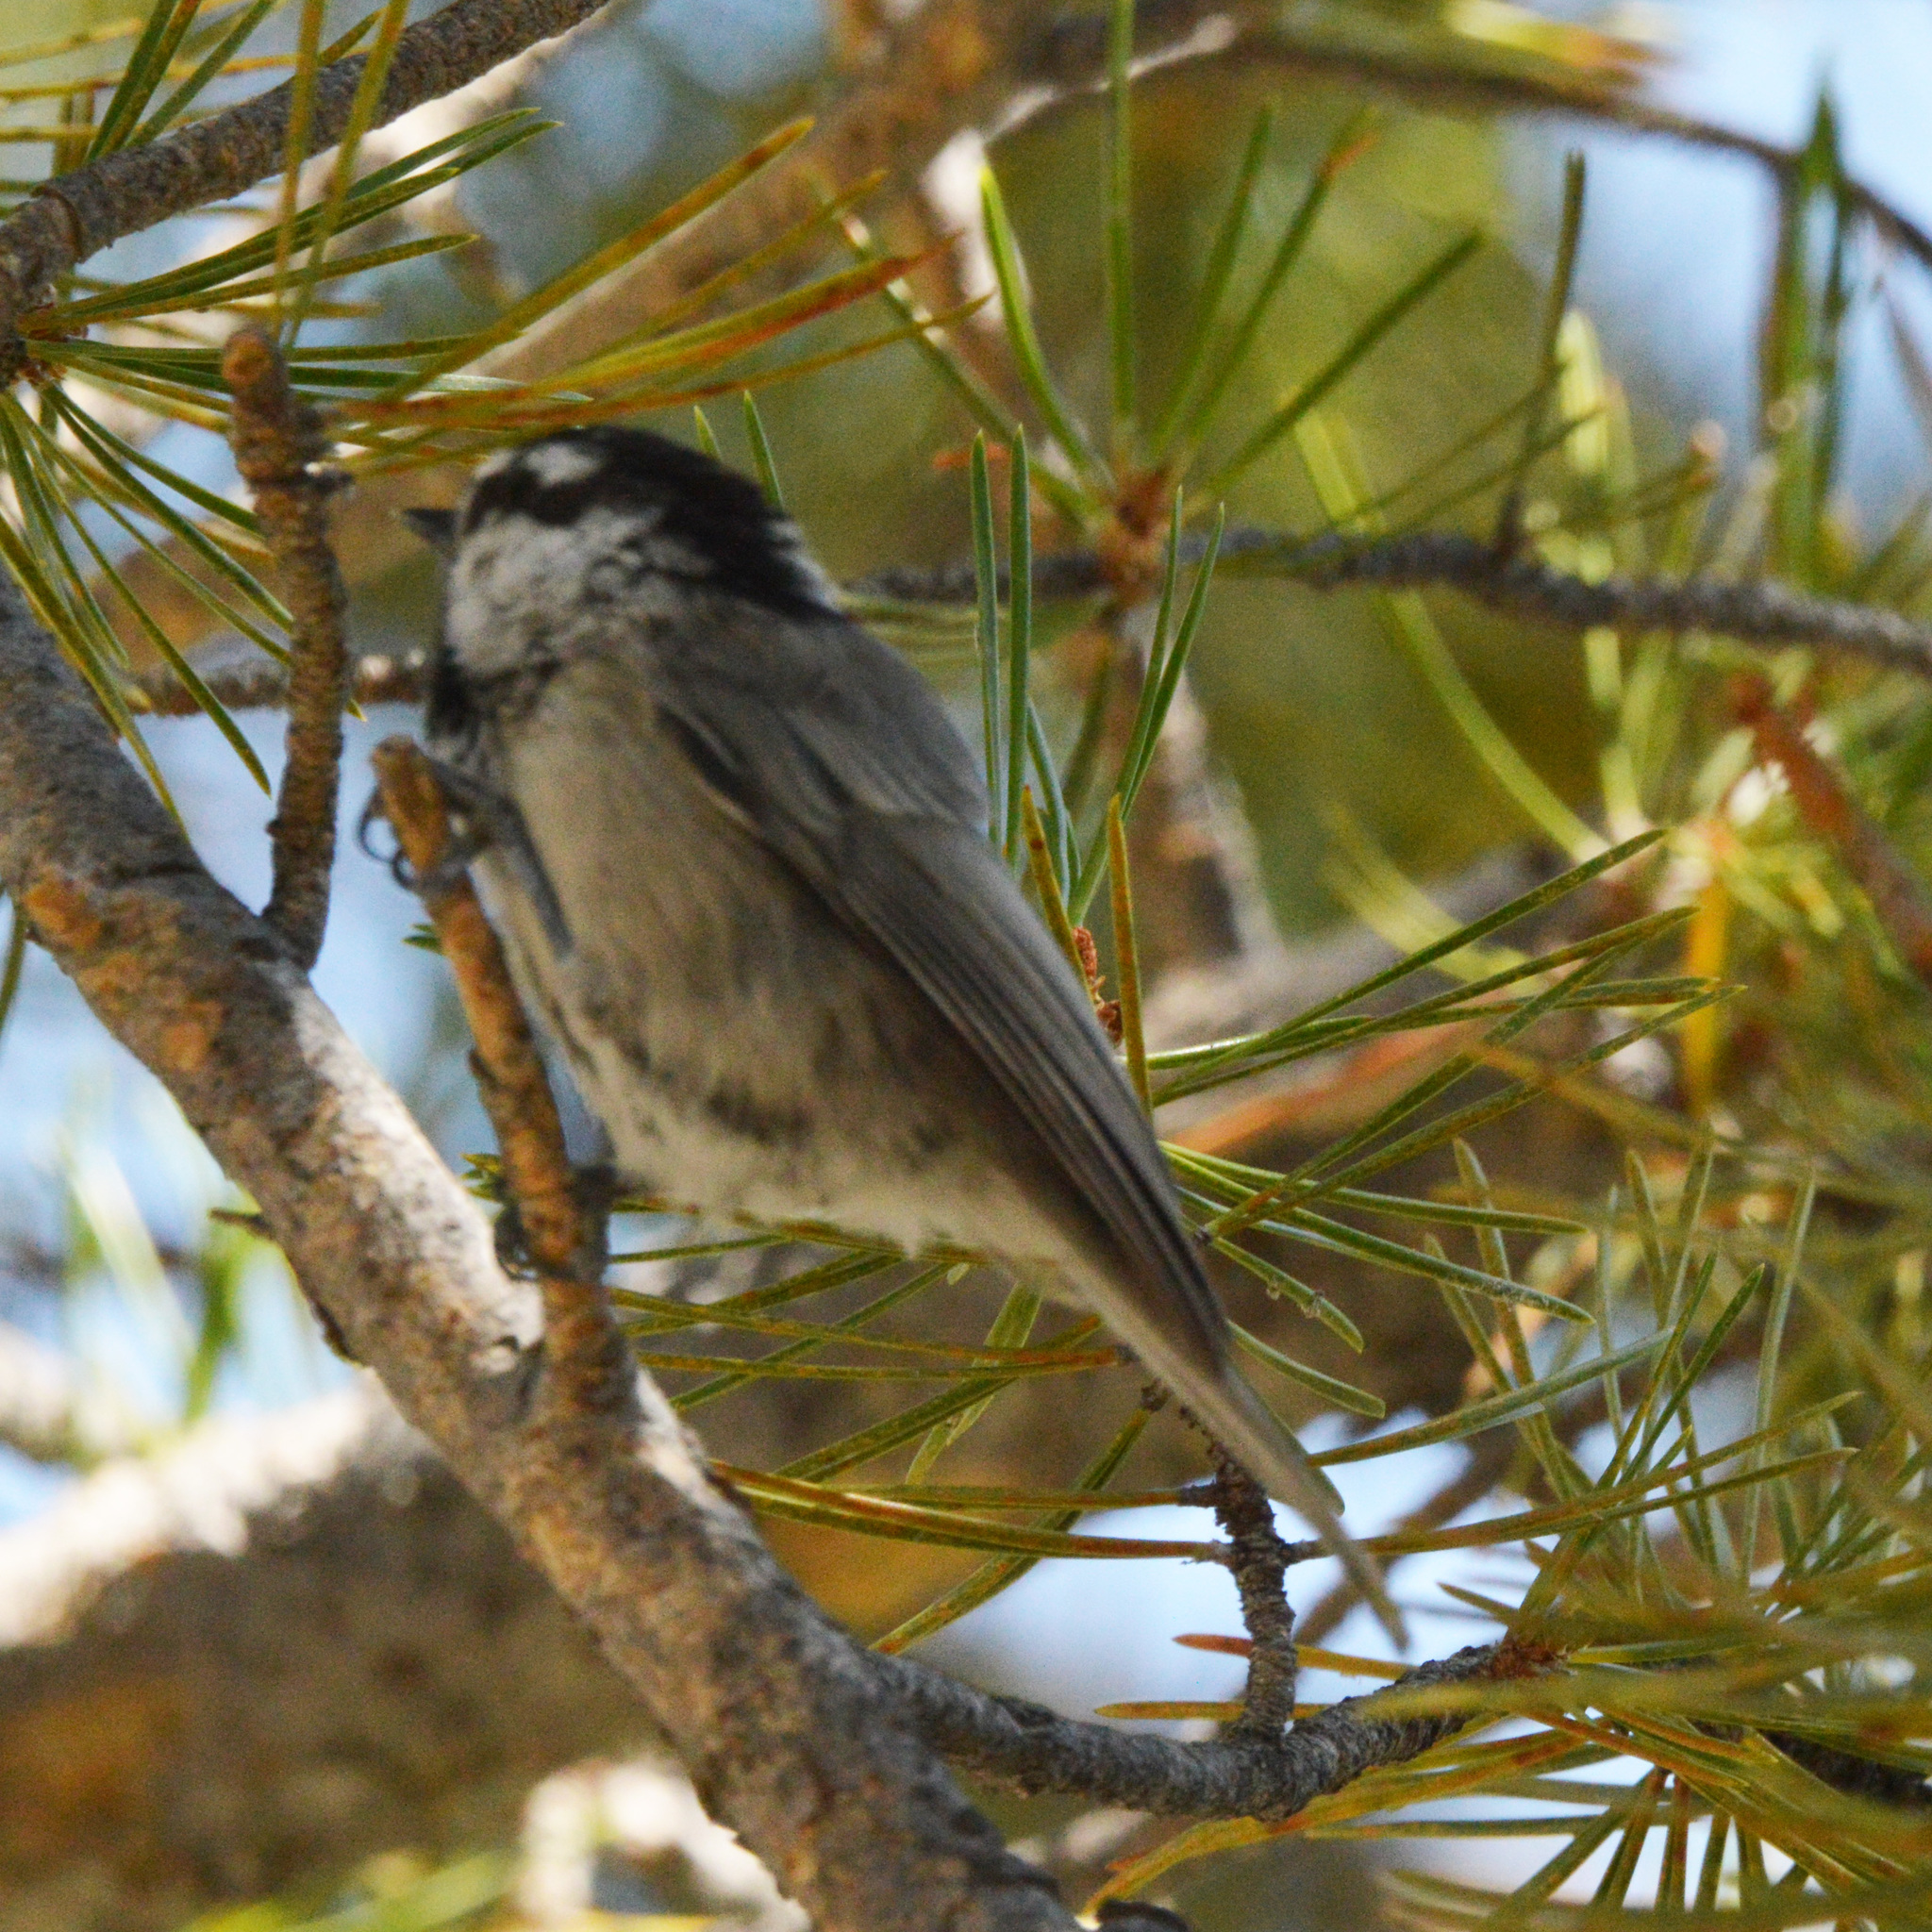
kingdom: Animalia
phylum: Chordata
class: Aves
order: Passeriformes
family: Paridae
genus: Poecile
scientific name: Poecile gambeli
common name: Mountain chickadee
